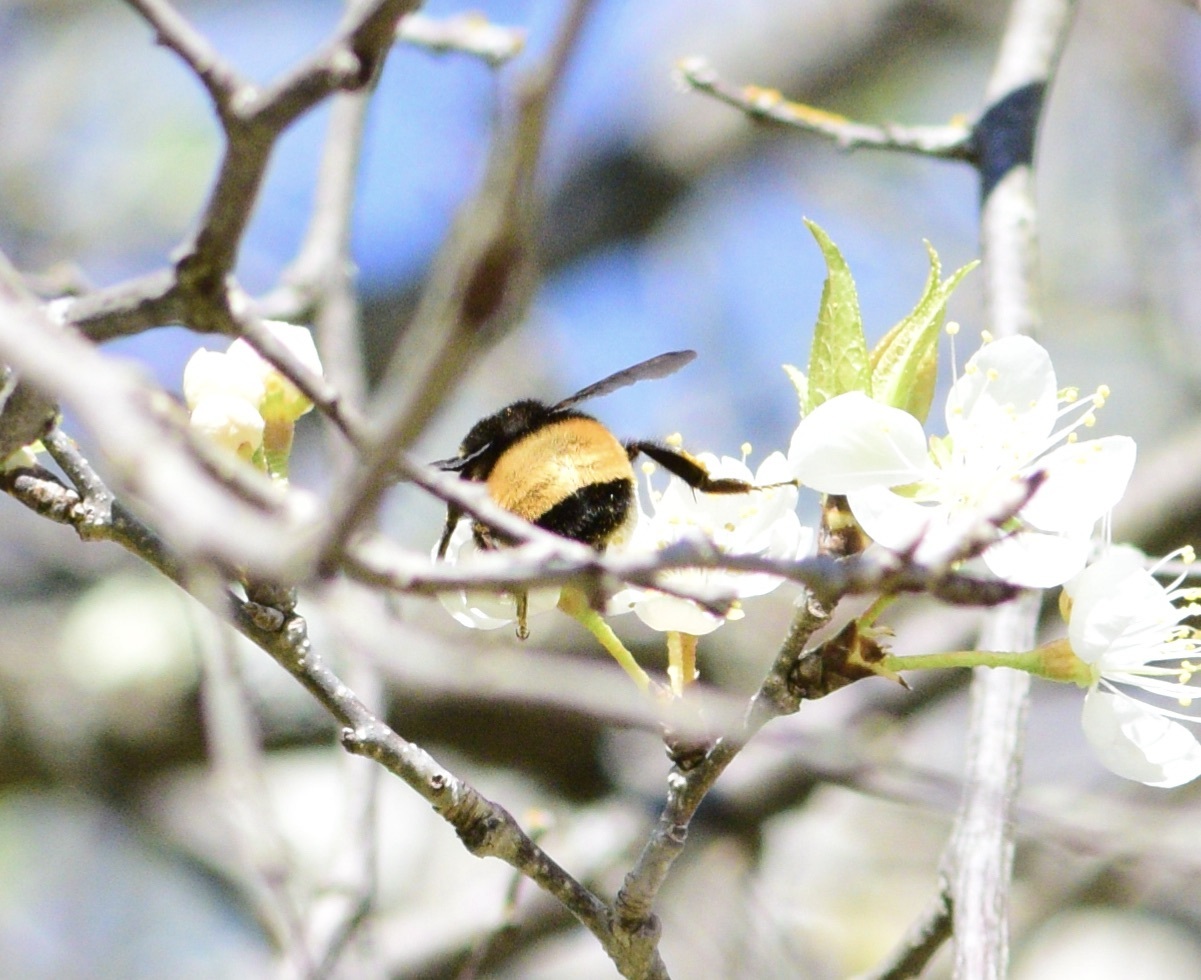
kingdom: Animalia
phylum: Arthropoda
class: Insecta
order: Hymenoptera
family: Apidae
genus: Bombus
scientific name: Bombus terricola
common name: Yellow-banded bumble bee
